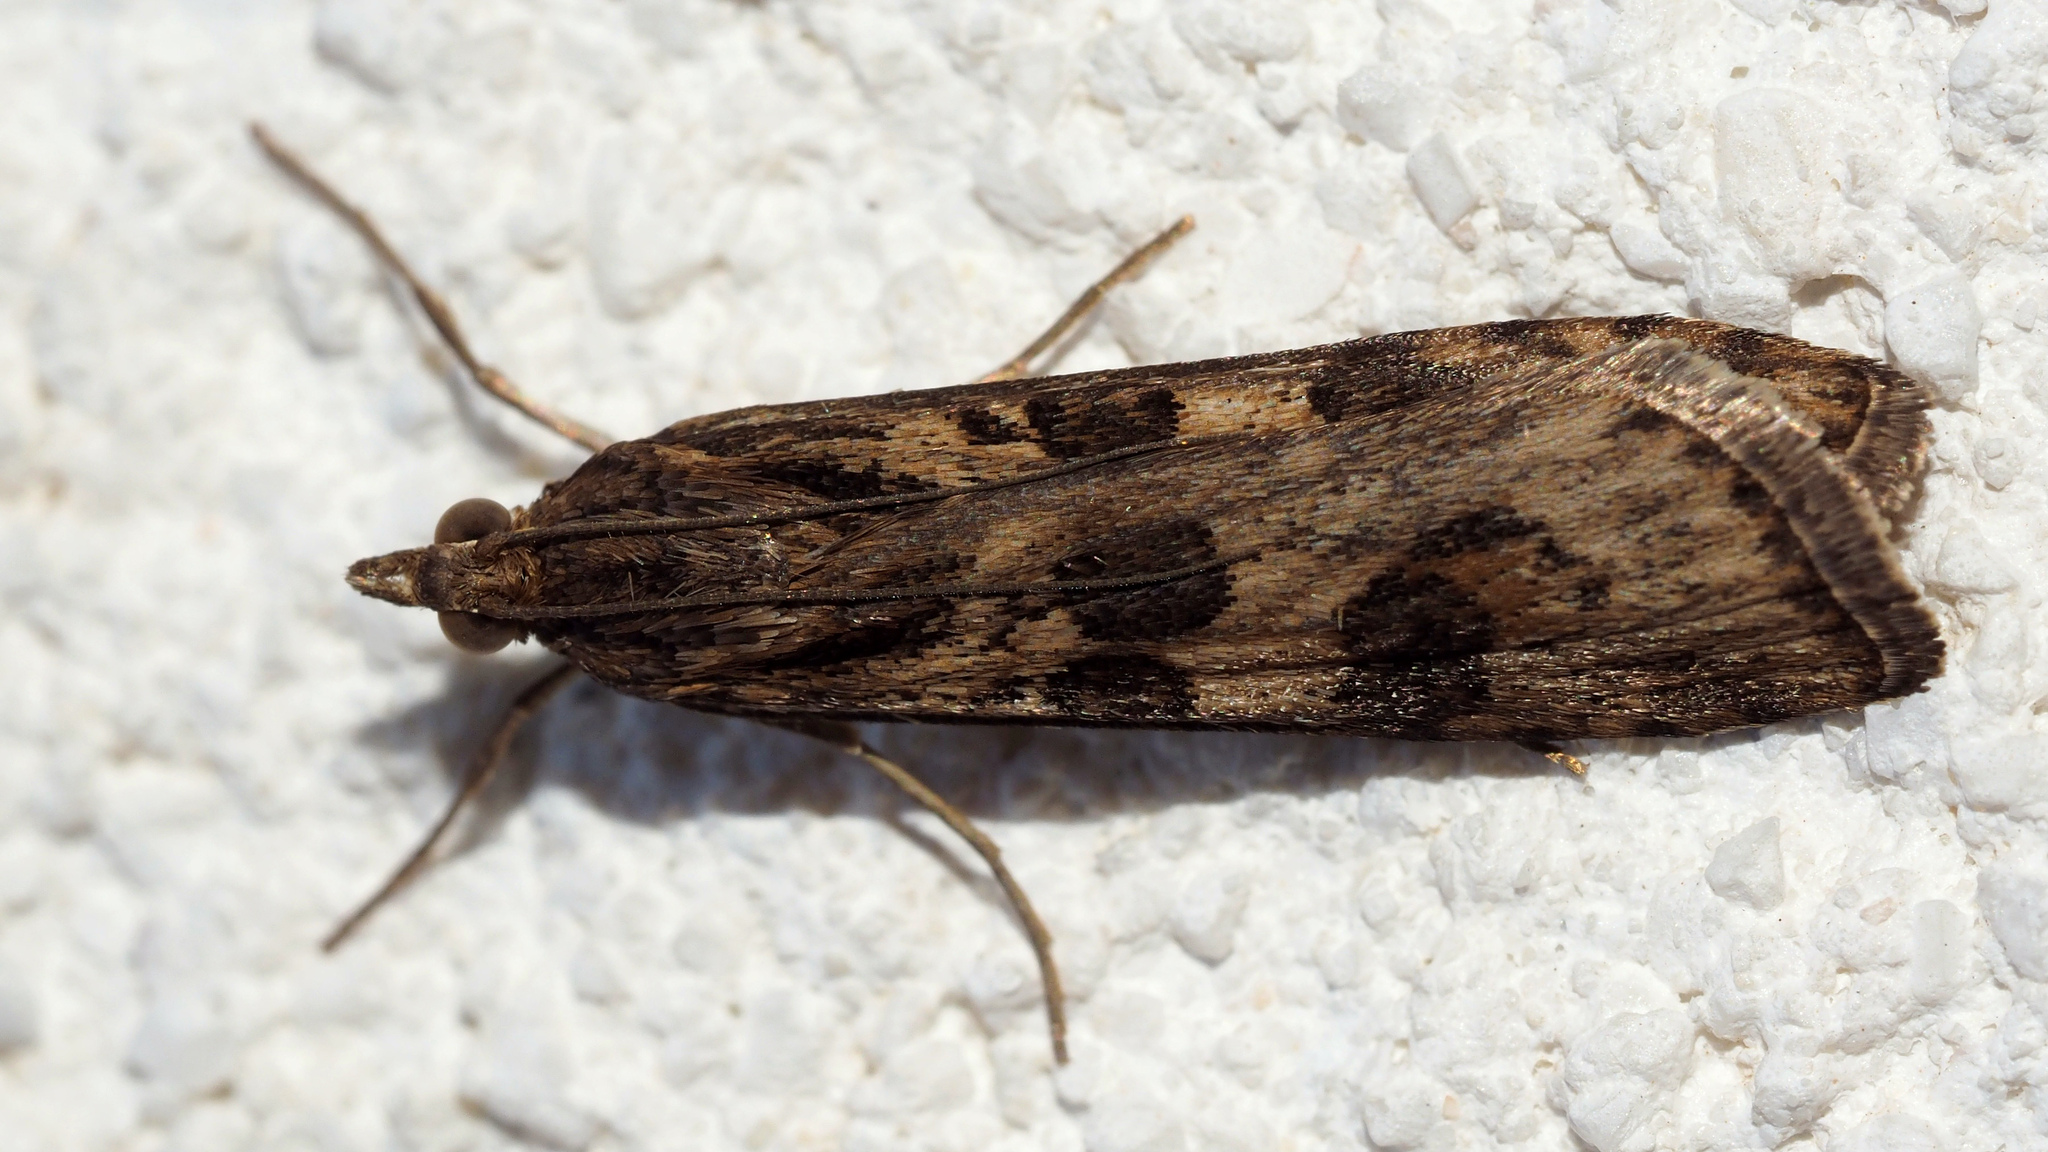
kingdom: Animalia
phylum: Arthropoda
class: Insecta
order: Lepidoptera
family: Crambidae
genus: Nomophila
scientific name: Nomophila noctuella
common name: Rush veneer
